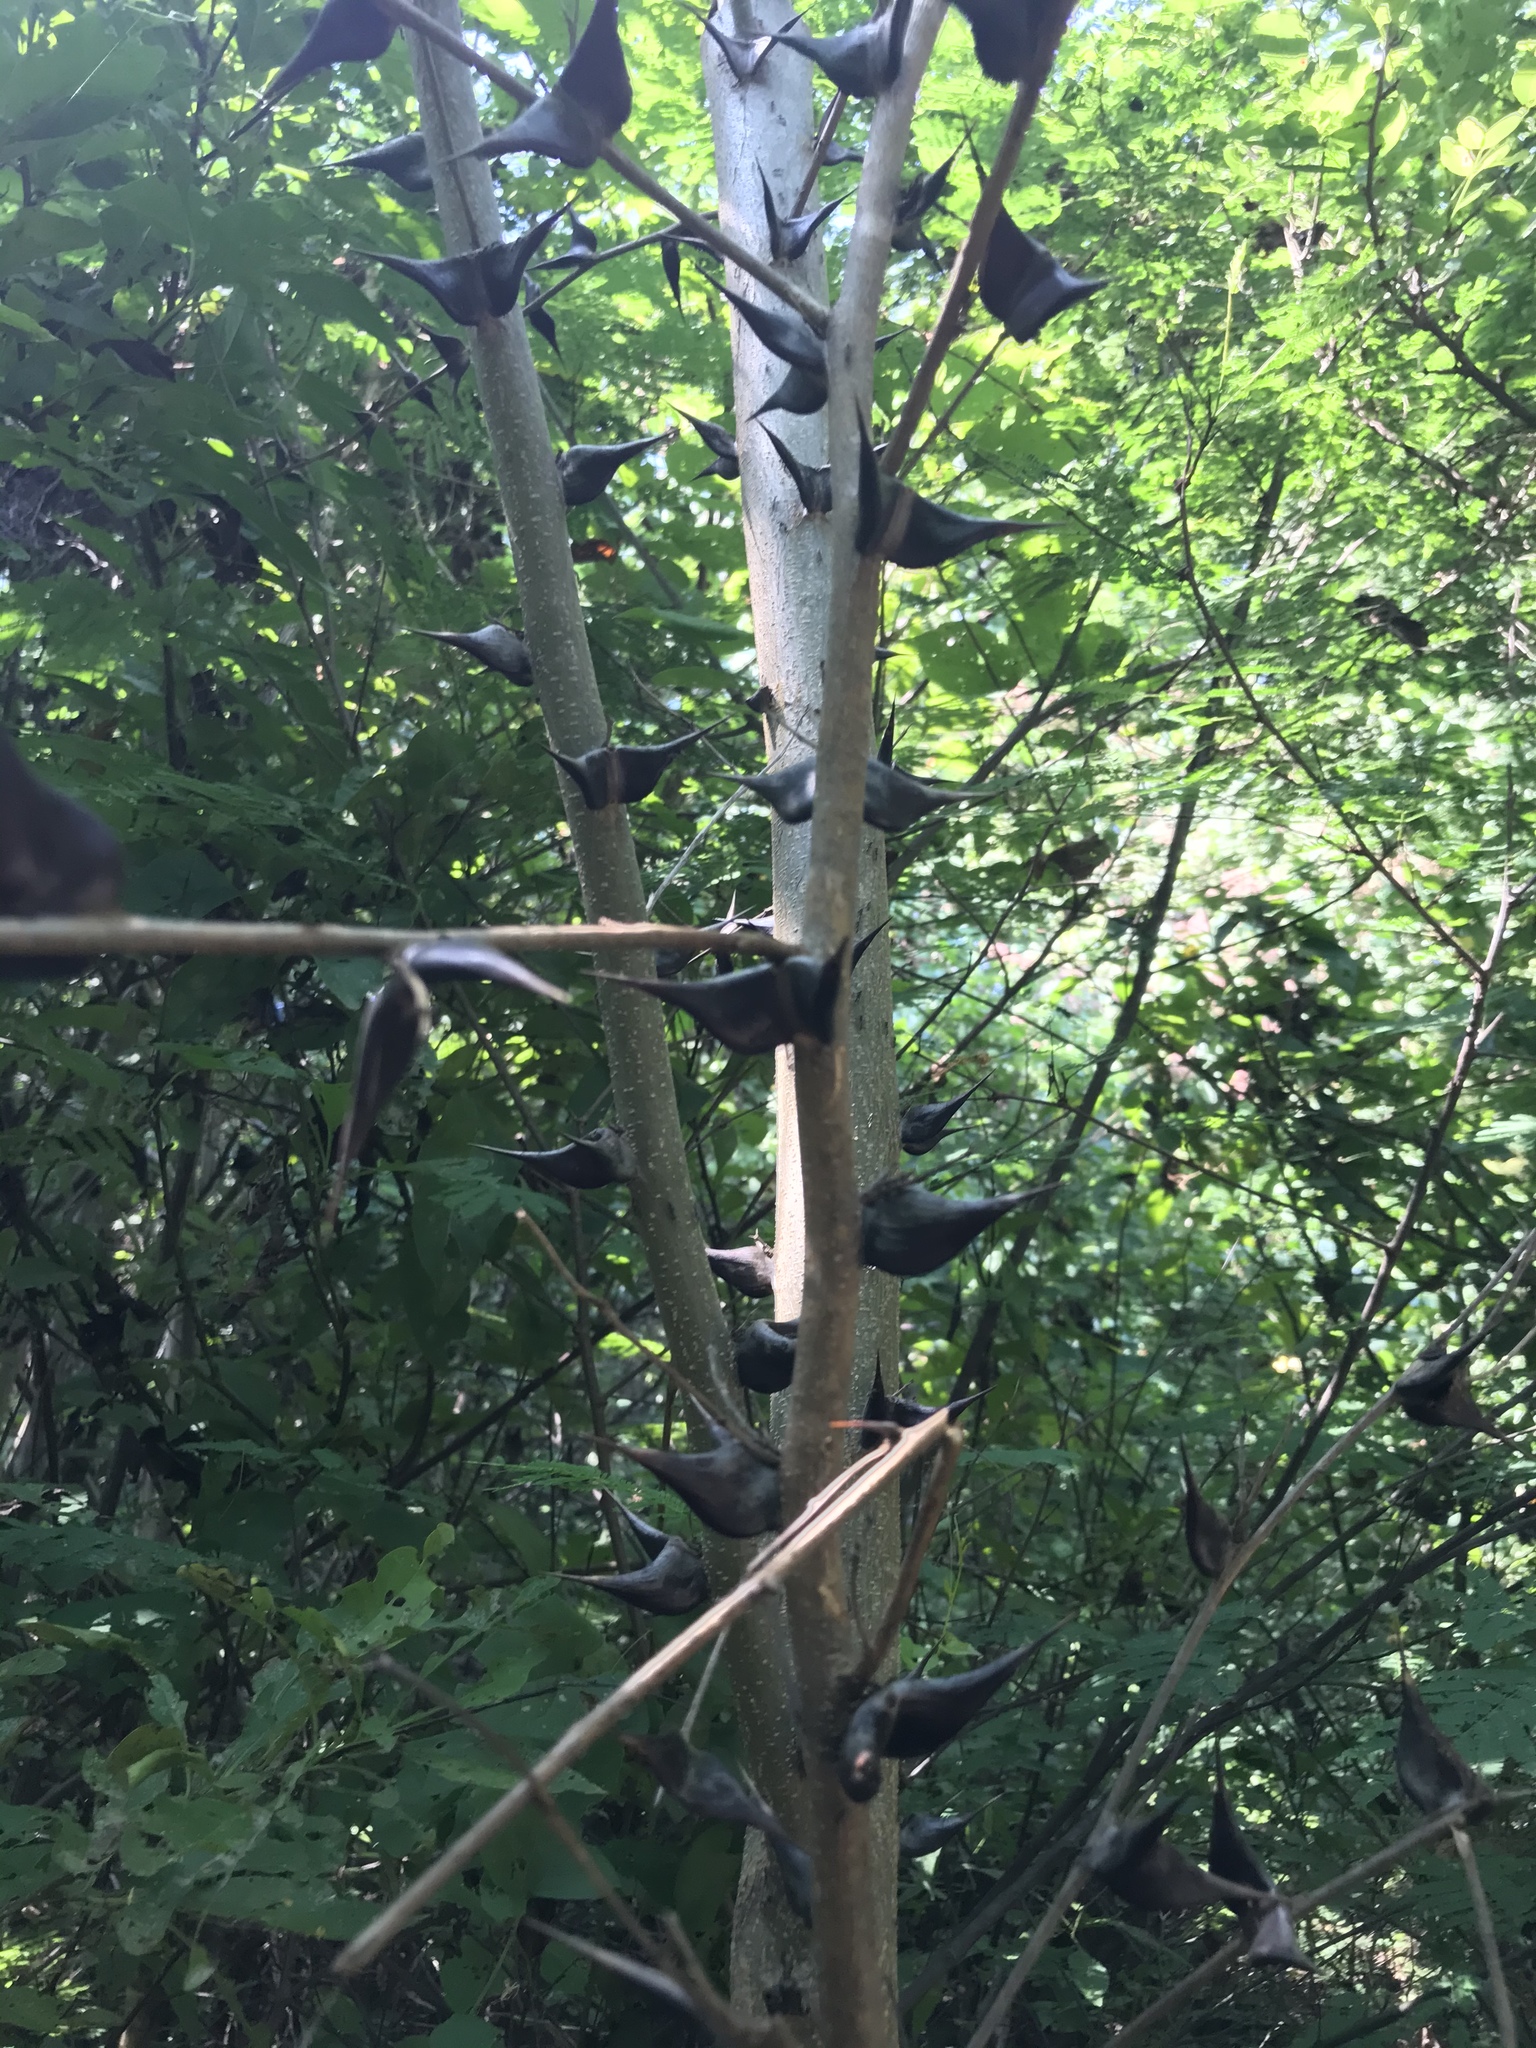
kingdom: Plantae
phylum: Tracheophyta
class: Magnoliopsida
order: Fabales
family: Fabaceae
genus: Vachellia
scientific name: Vachellia hindsii
